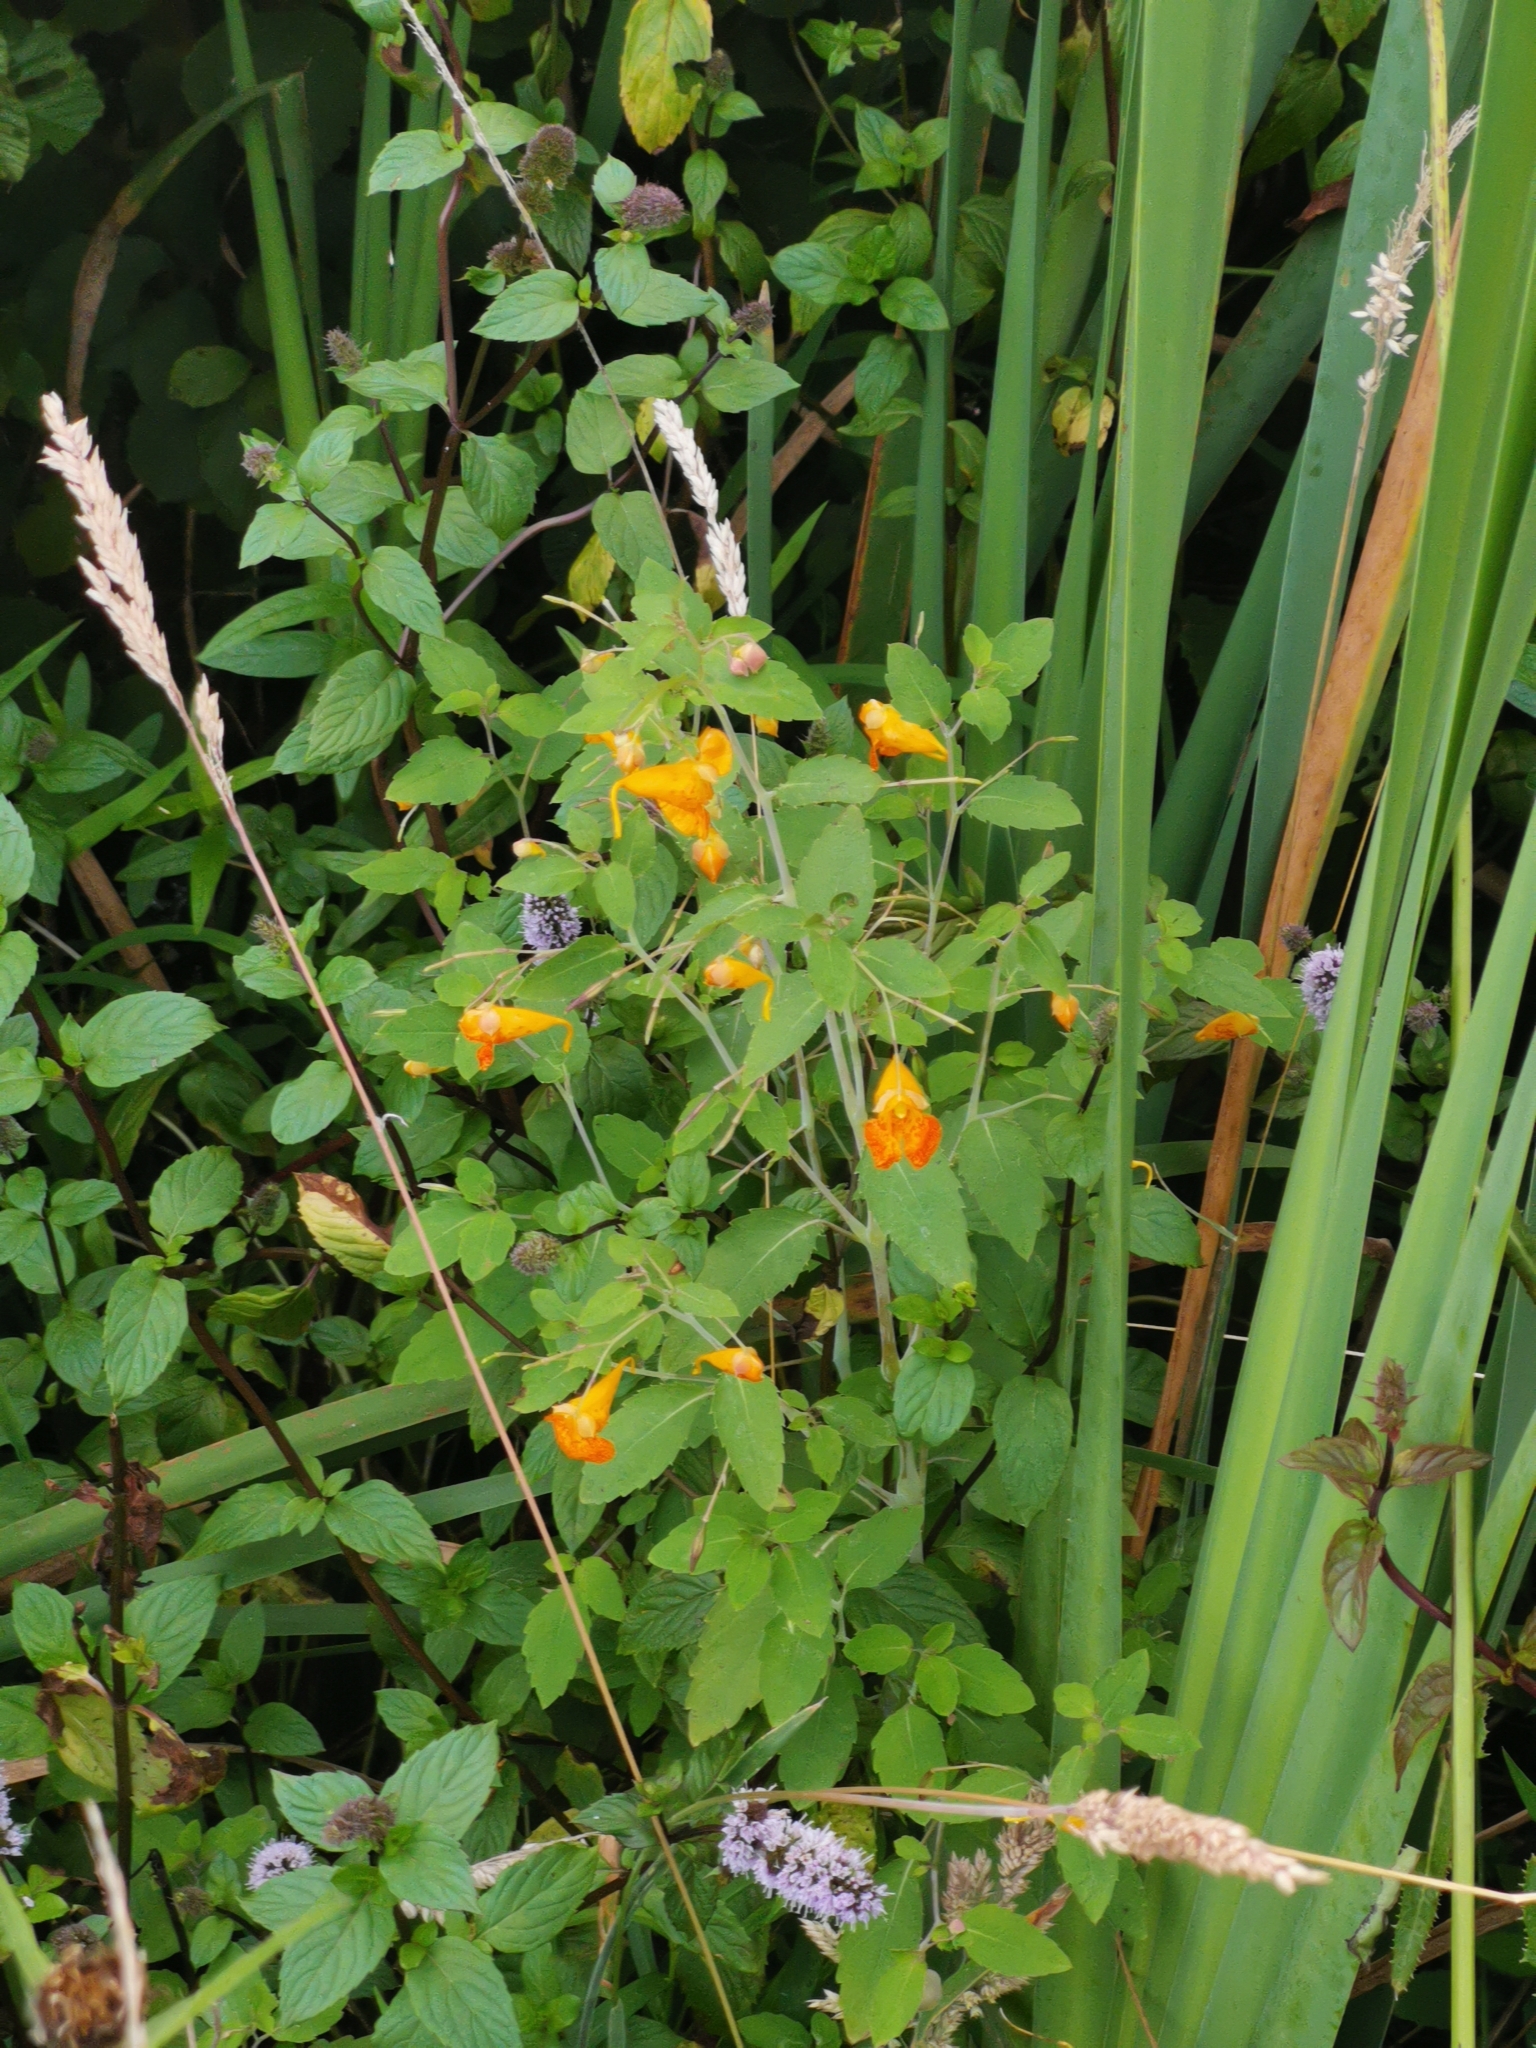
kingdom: Plantae
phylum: Tracheophyta
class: Magnoliopsida
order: Ericales
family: Balsaminaceae
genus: Impatiens
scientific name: Impatiens capensis
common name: Orange balsam
